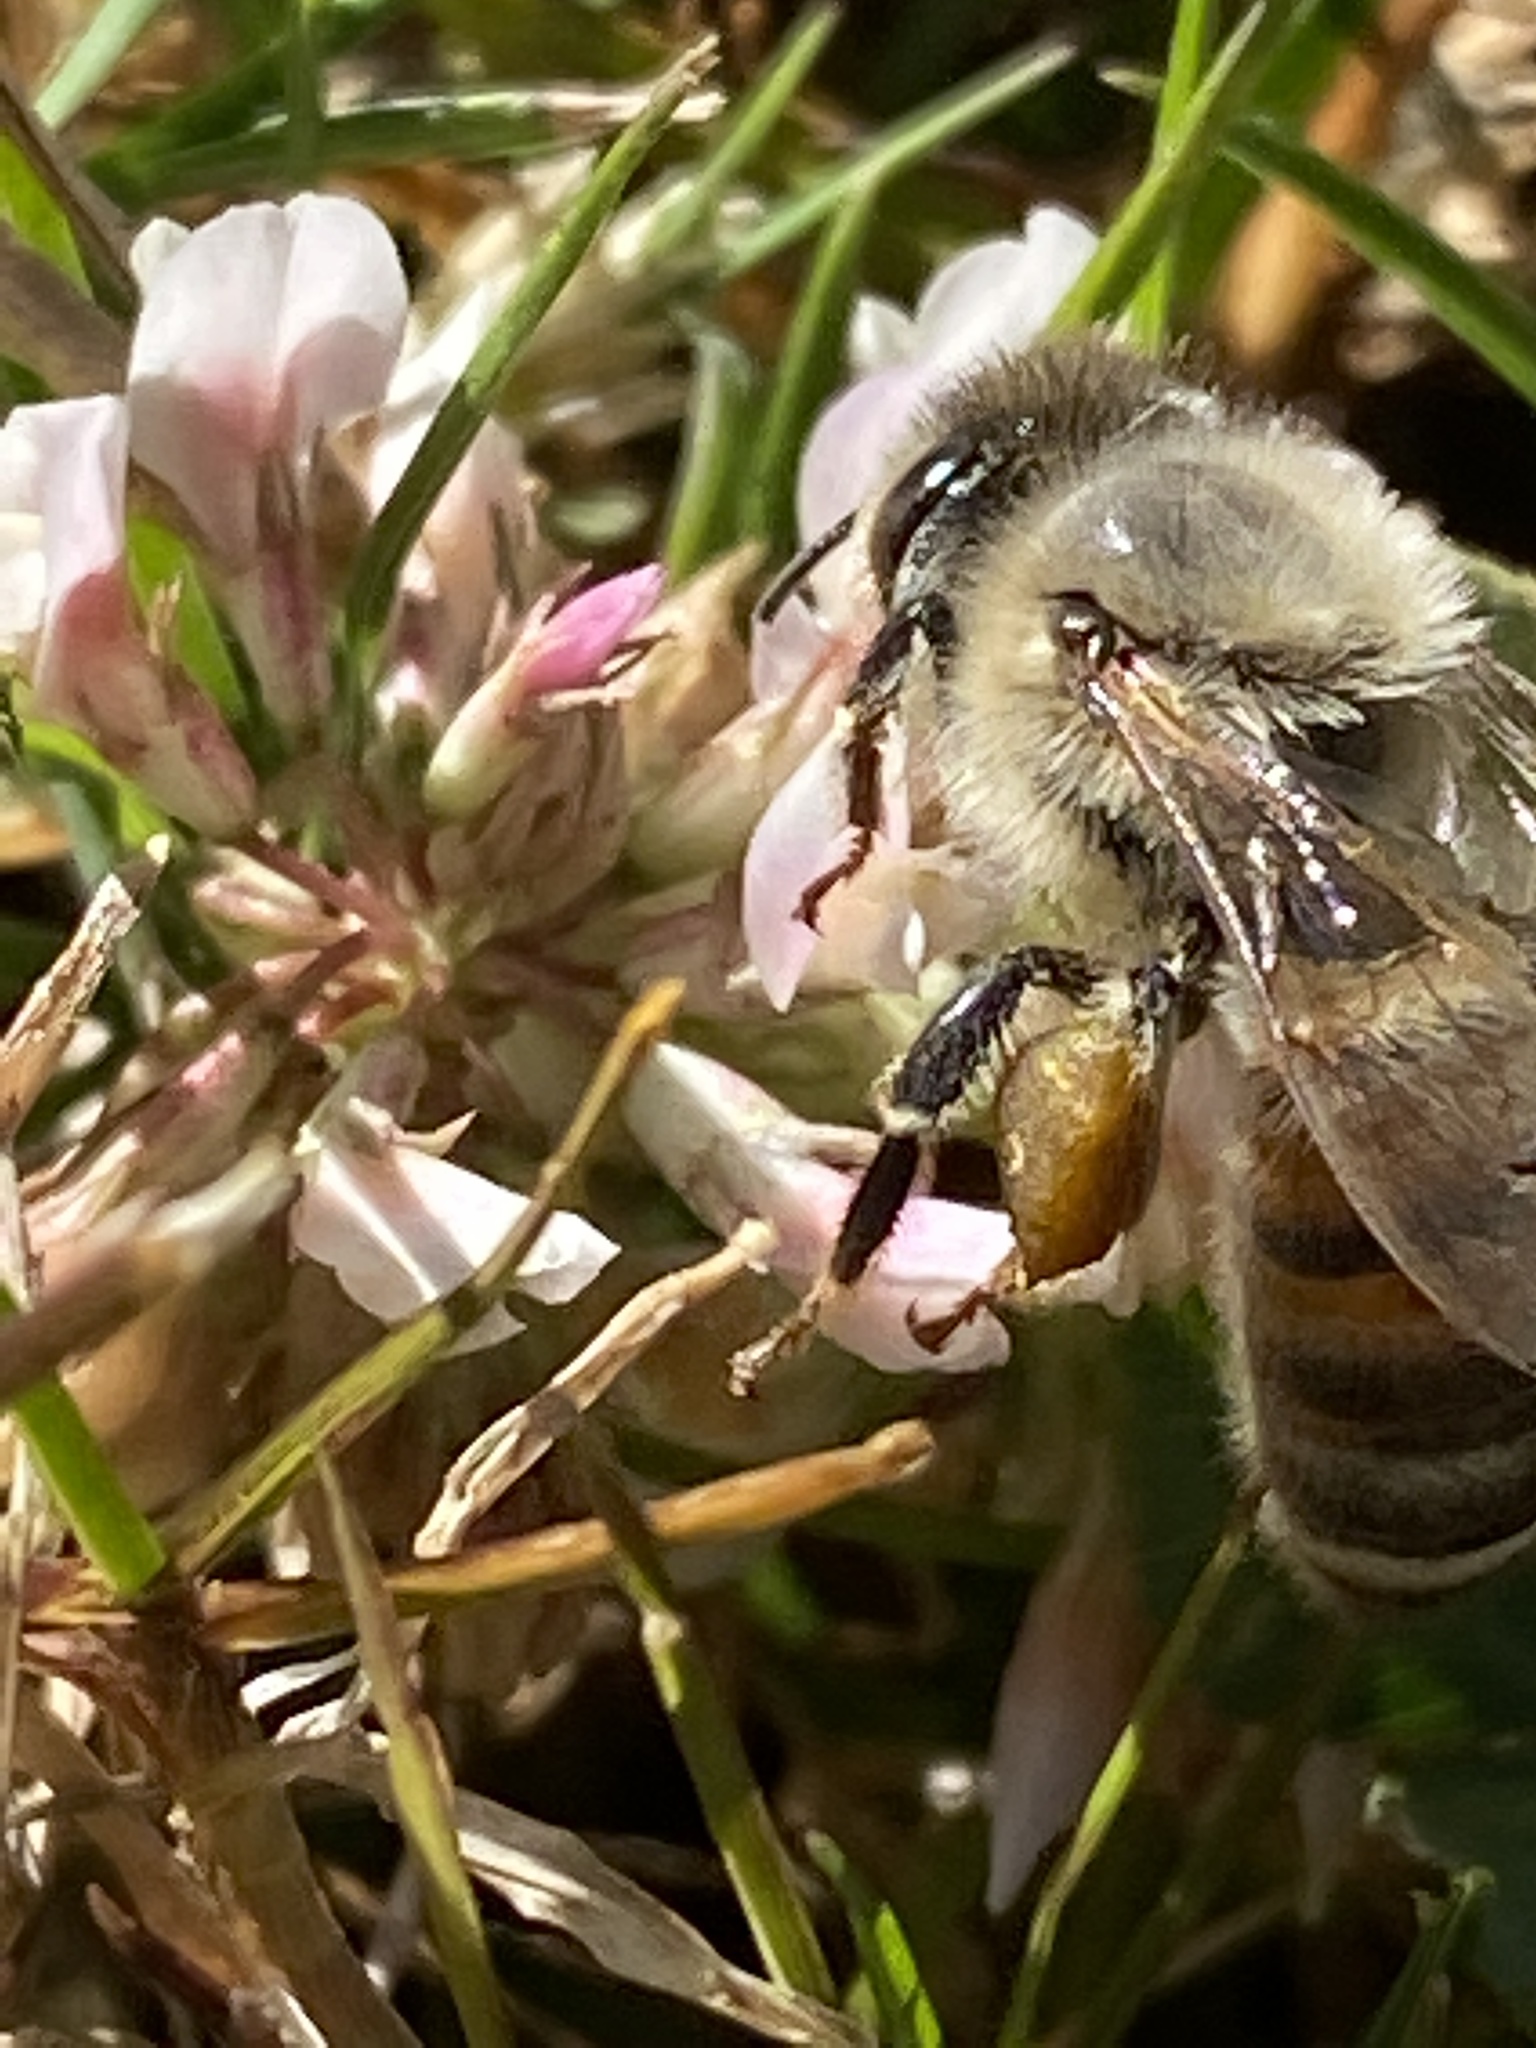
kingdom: Animalia
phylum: Arthropoda
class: Insecta
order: Hymenoptera
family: Apidae
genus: Apis
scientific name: Apis mellifera
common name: Honey bee
